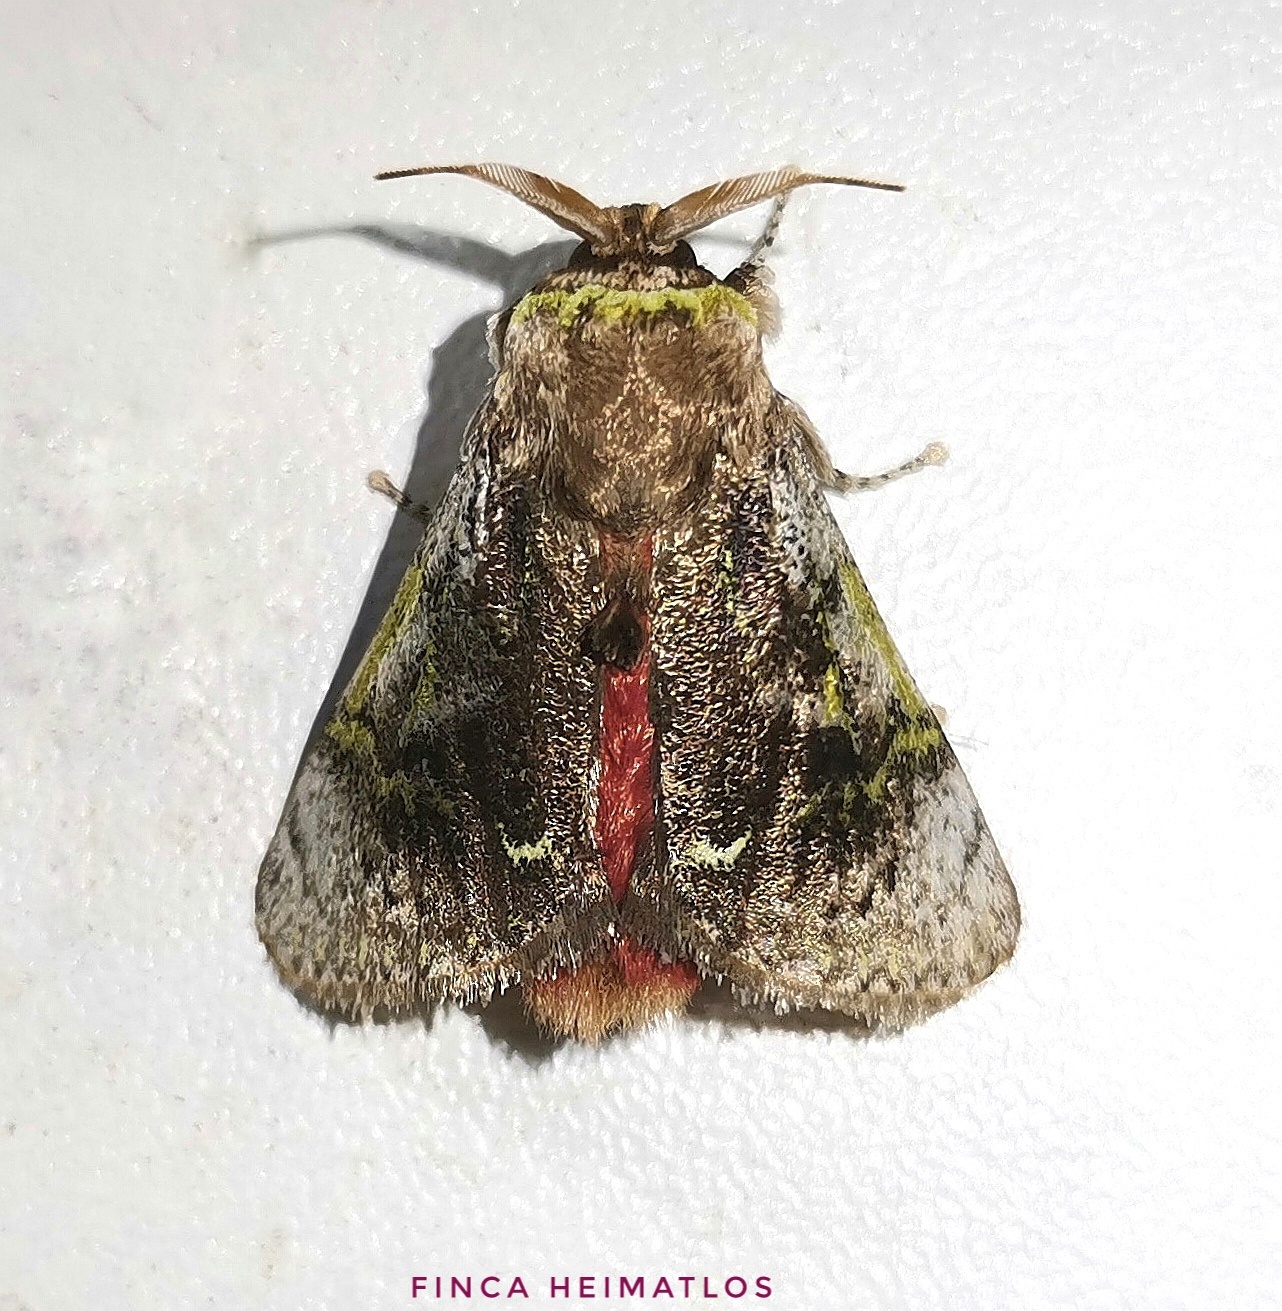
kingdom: Animalia
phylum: Arthropoda
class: Insecta
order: Lepidoptera
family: Aididae
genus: Aidos
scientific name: Aidos yamouna
